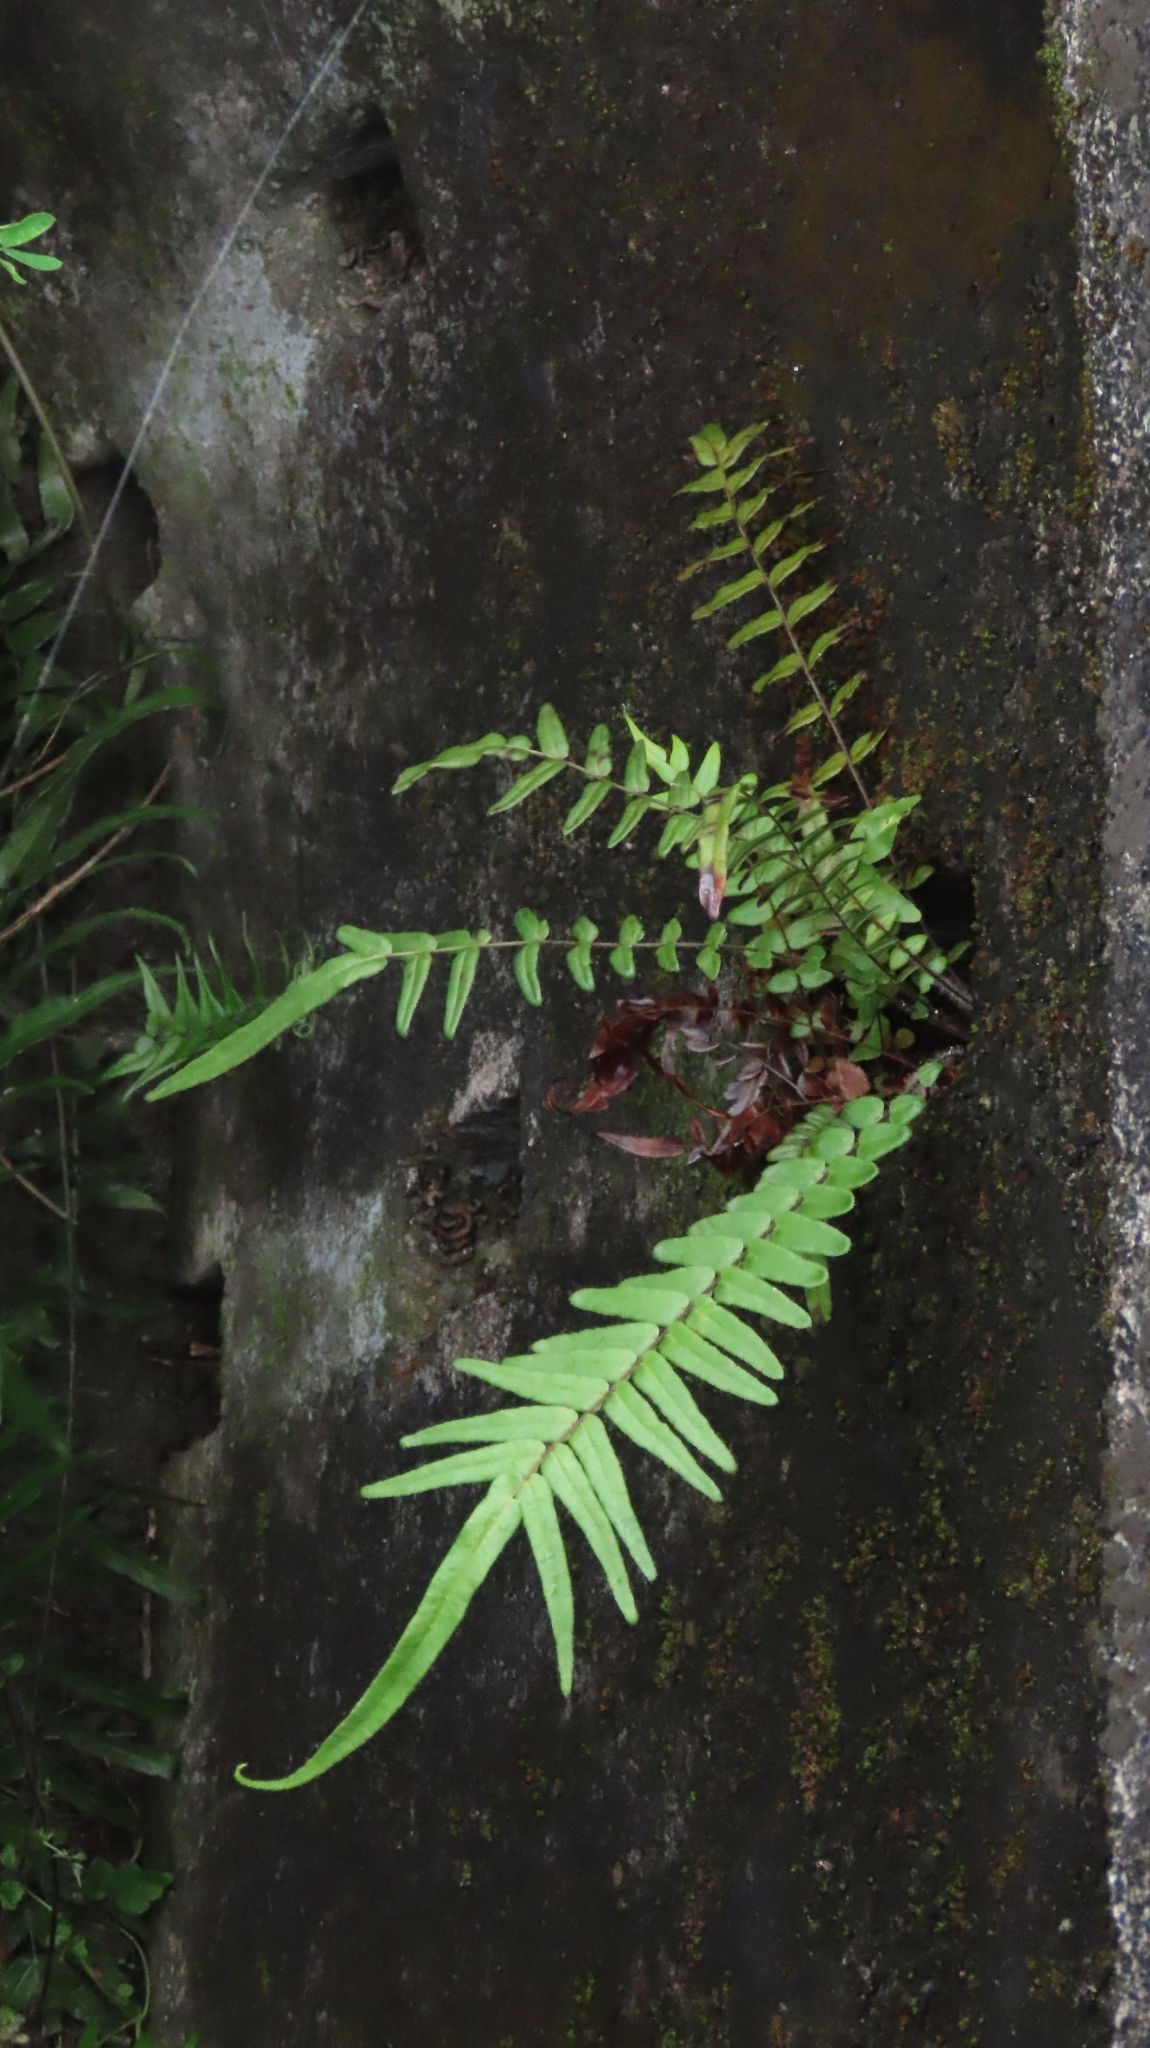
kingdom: Plantae
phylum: Tracheophyta
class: Polypodiopsida
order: Polypodiales
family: Pteridaceae
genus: Pteris
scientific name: Pteris vittata
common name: Ladder brake
